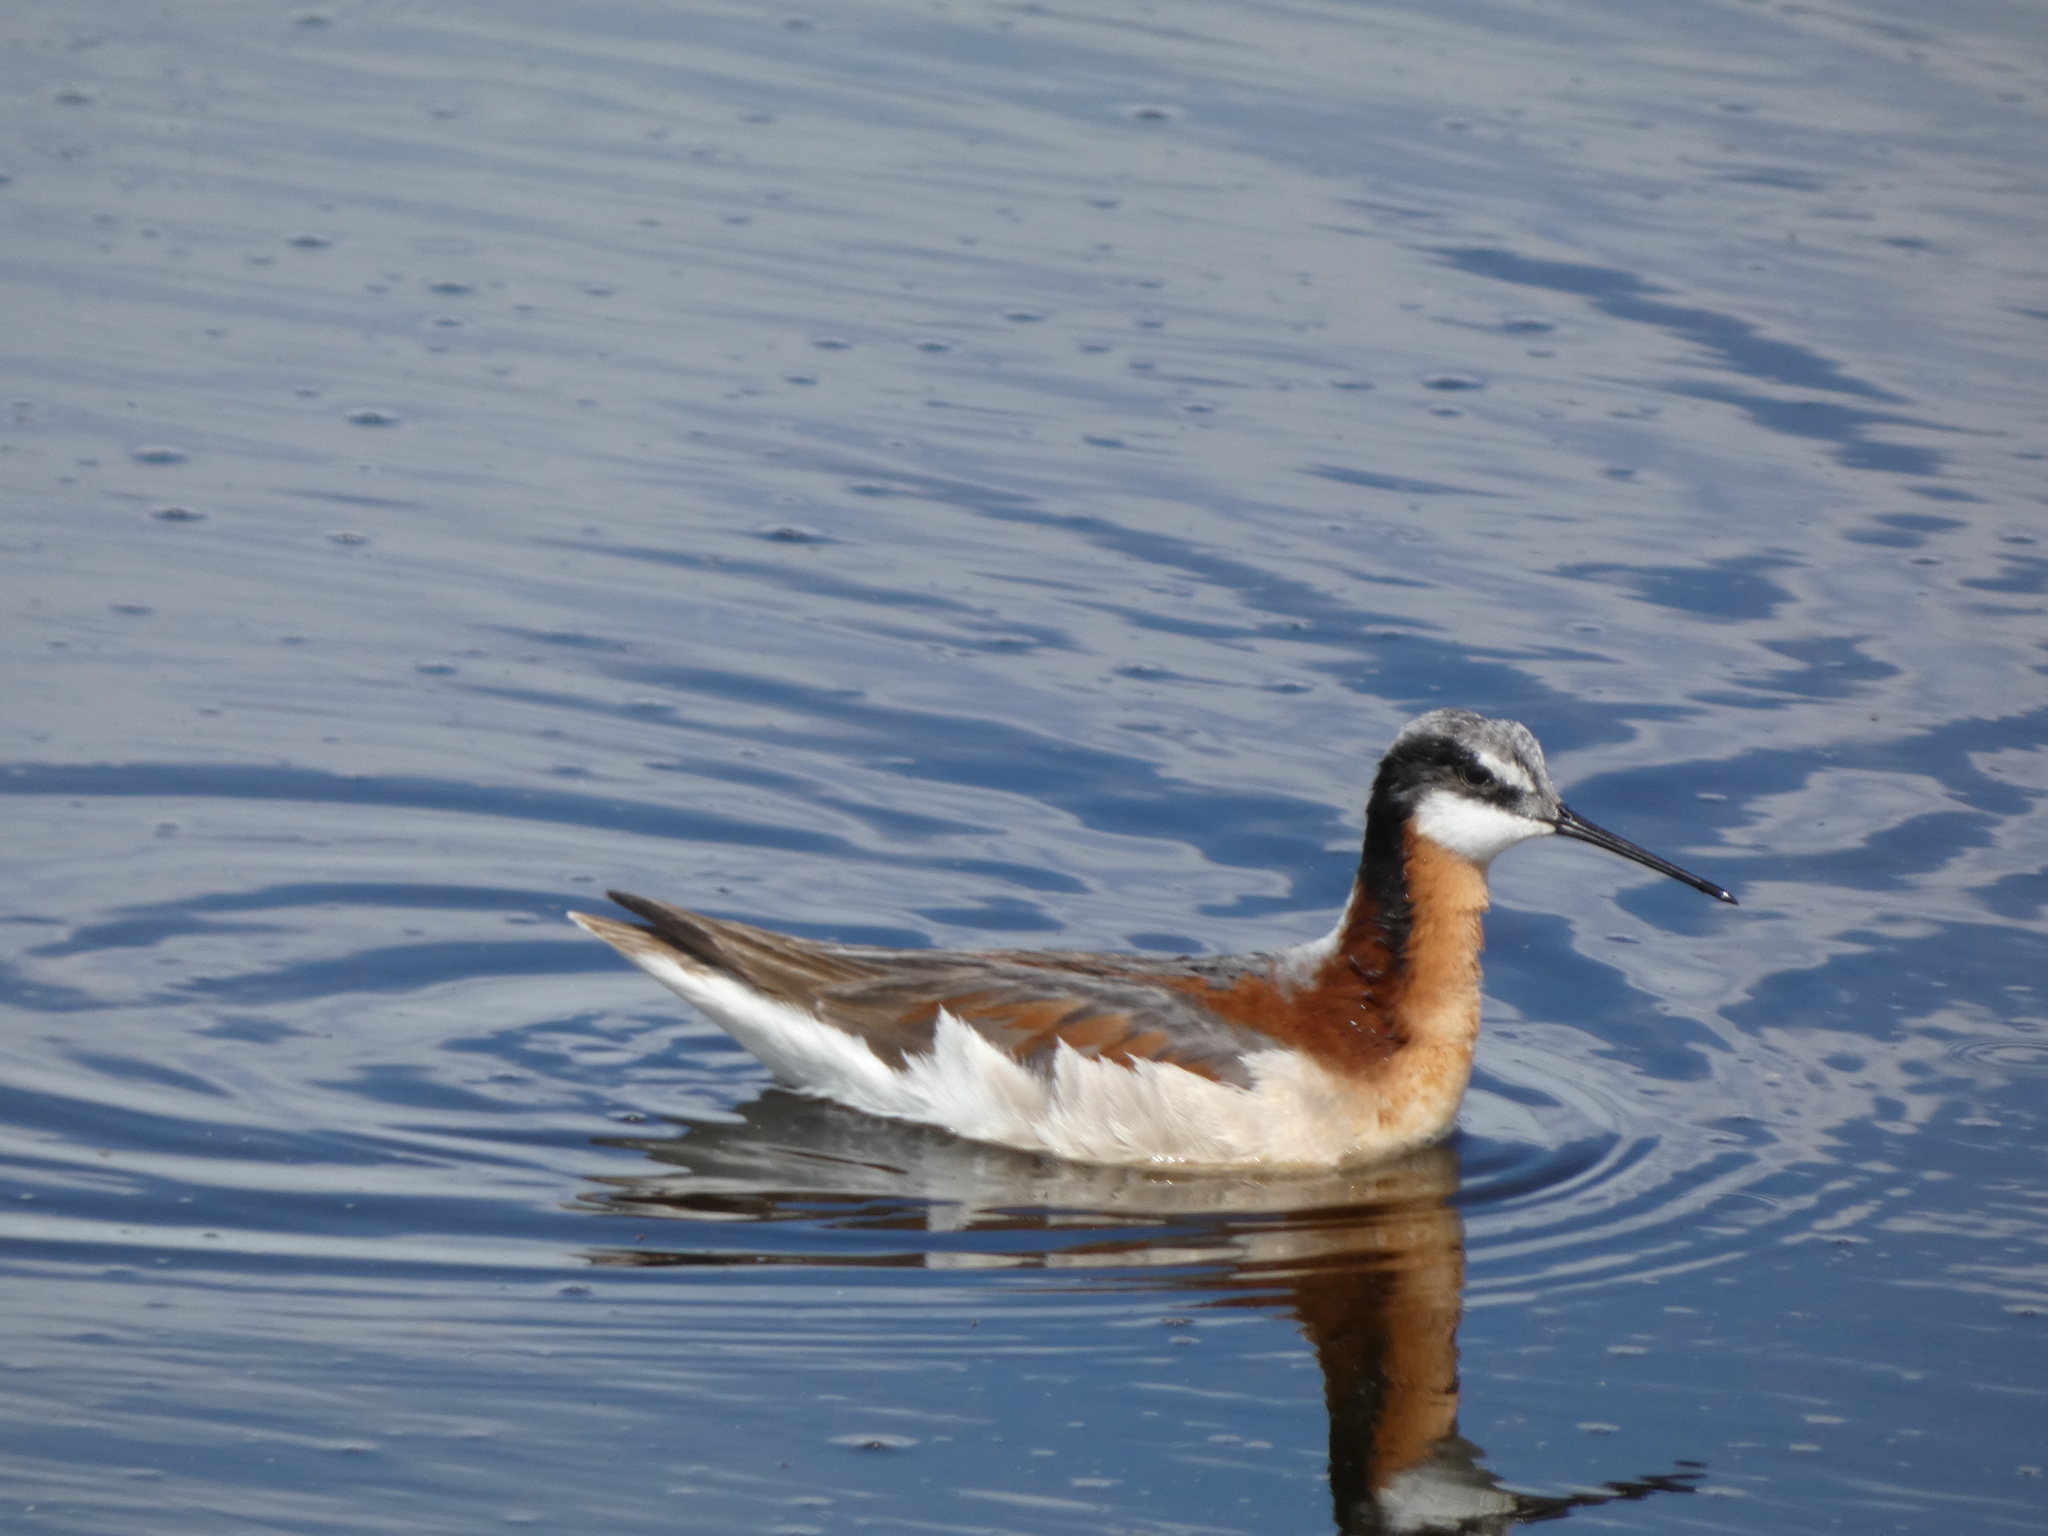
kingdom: Animalia
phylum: Chordata
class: Aves
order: Charadriiformes
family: Scolopacidae
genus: Phalaropus
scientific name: Phalaropus tricolor
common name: Wilson's phalarope
